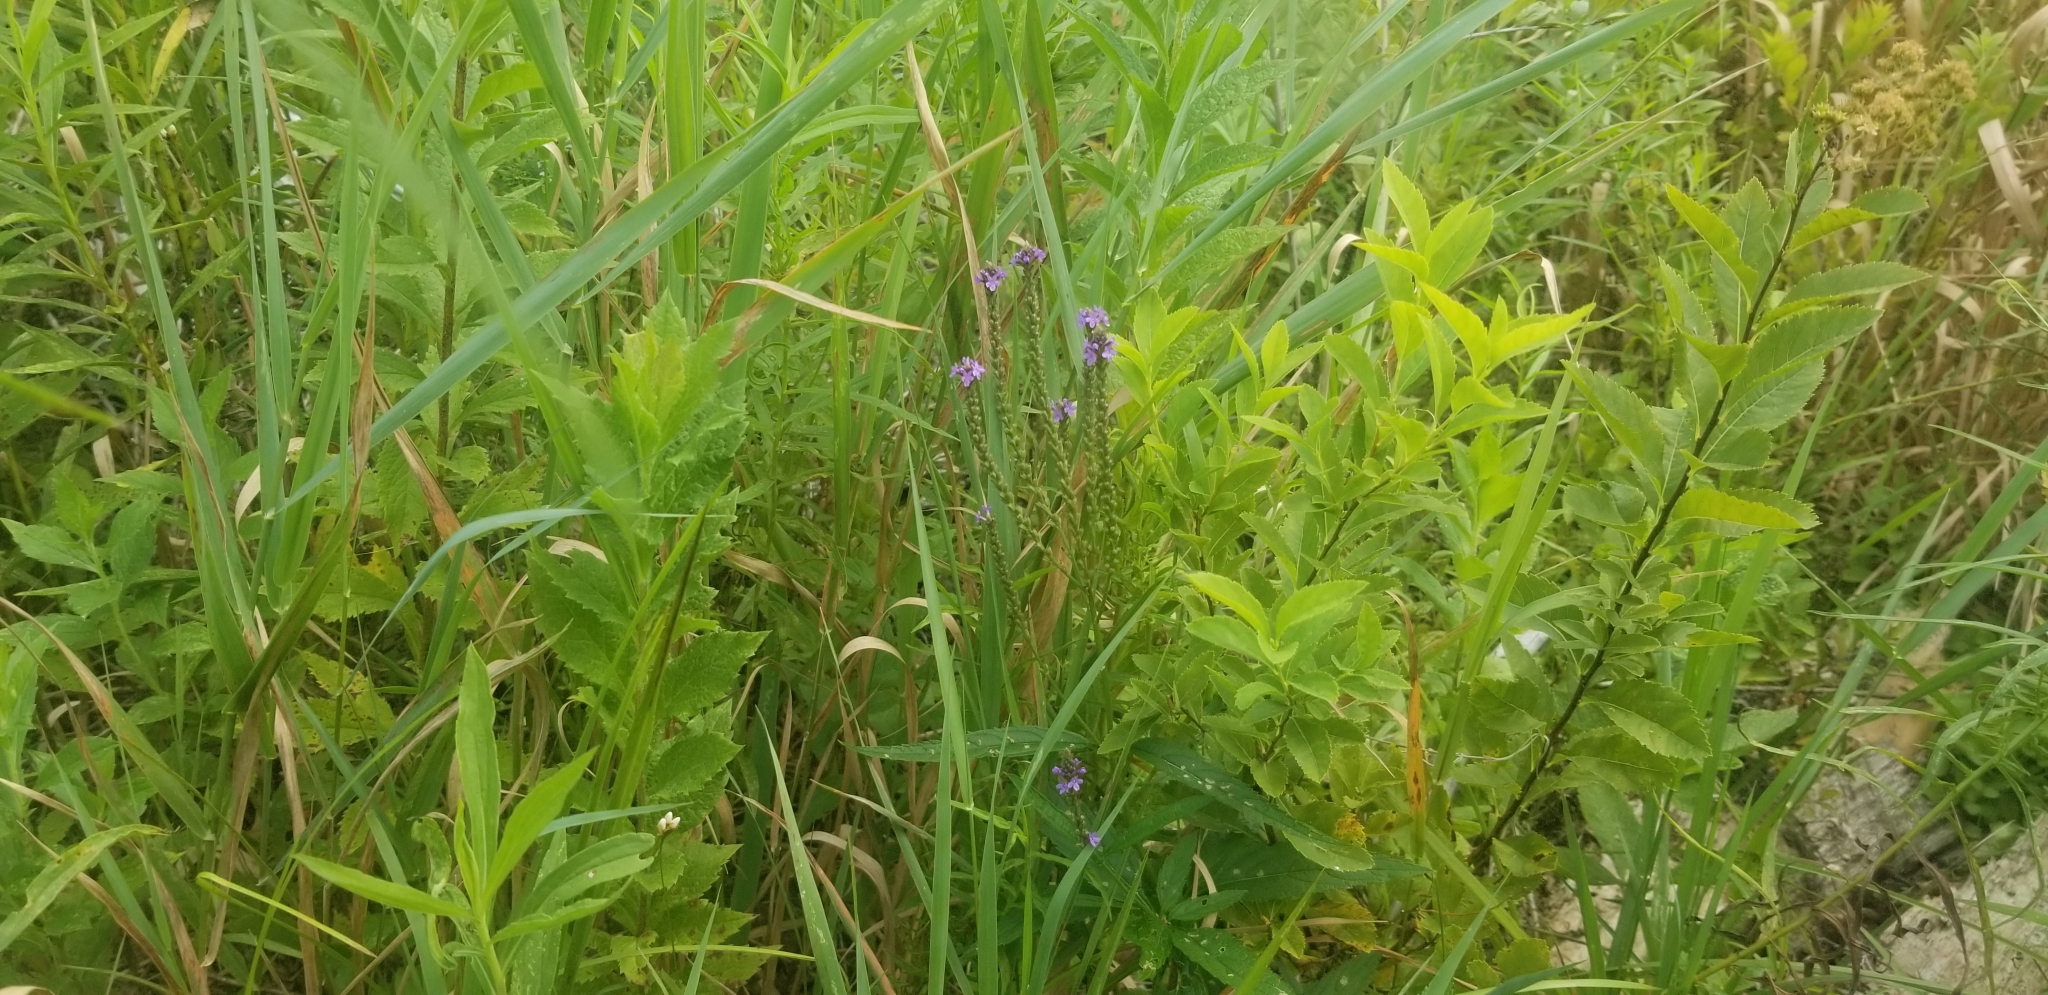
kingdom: Plantae
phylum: Tracheophyta
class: Magnoliopsida
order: Lamiales
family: Verbenaceae
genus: Verbena
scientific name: Verbena hastata
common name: American blue vervain
